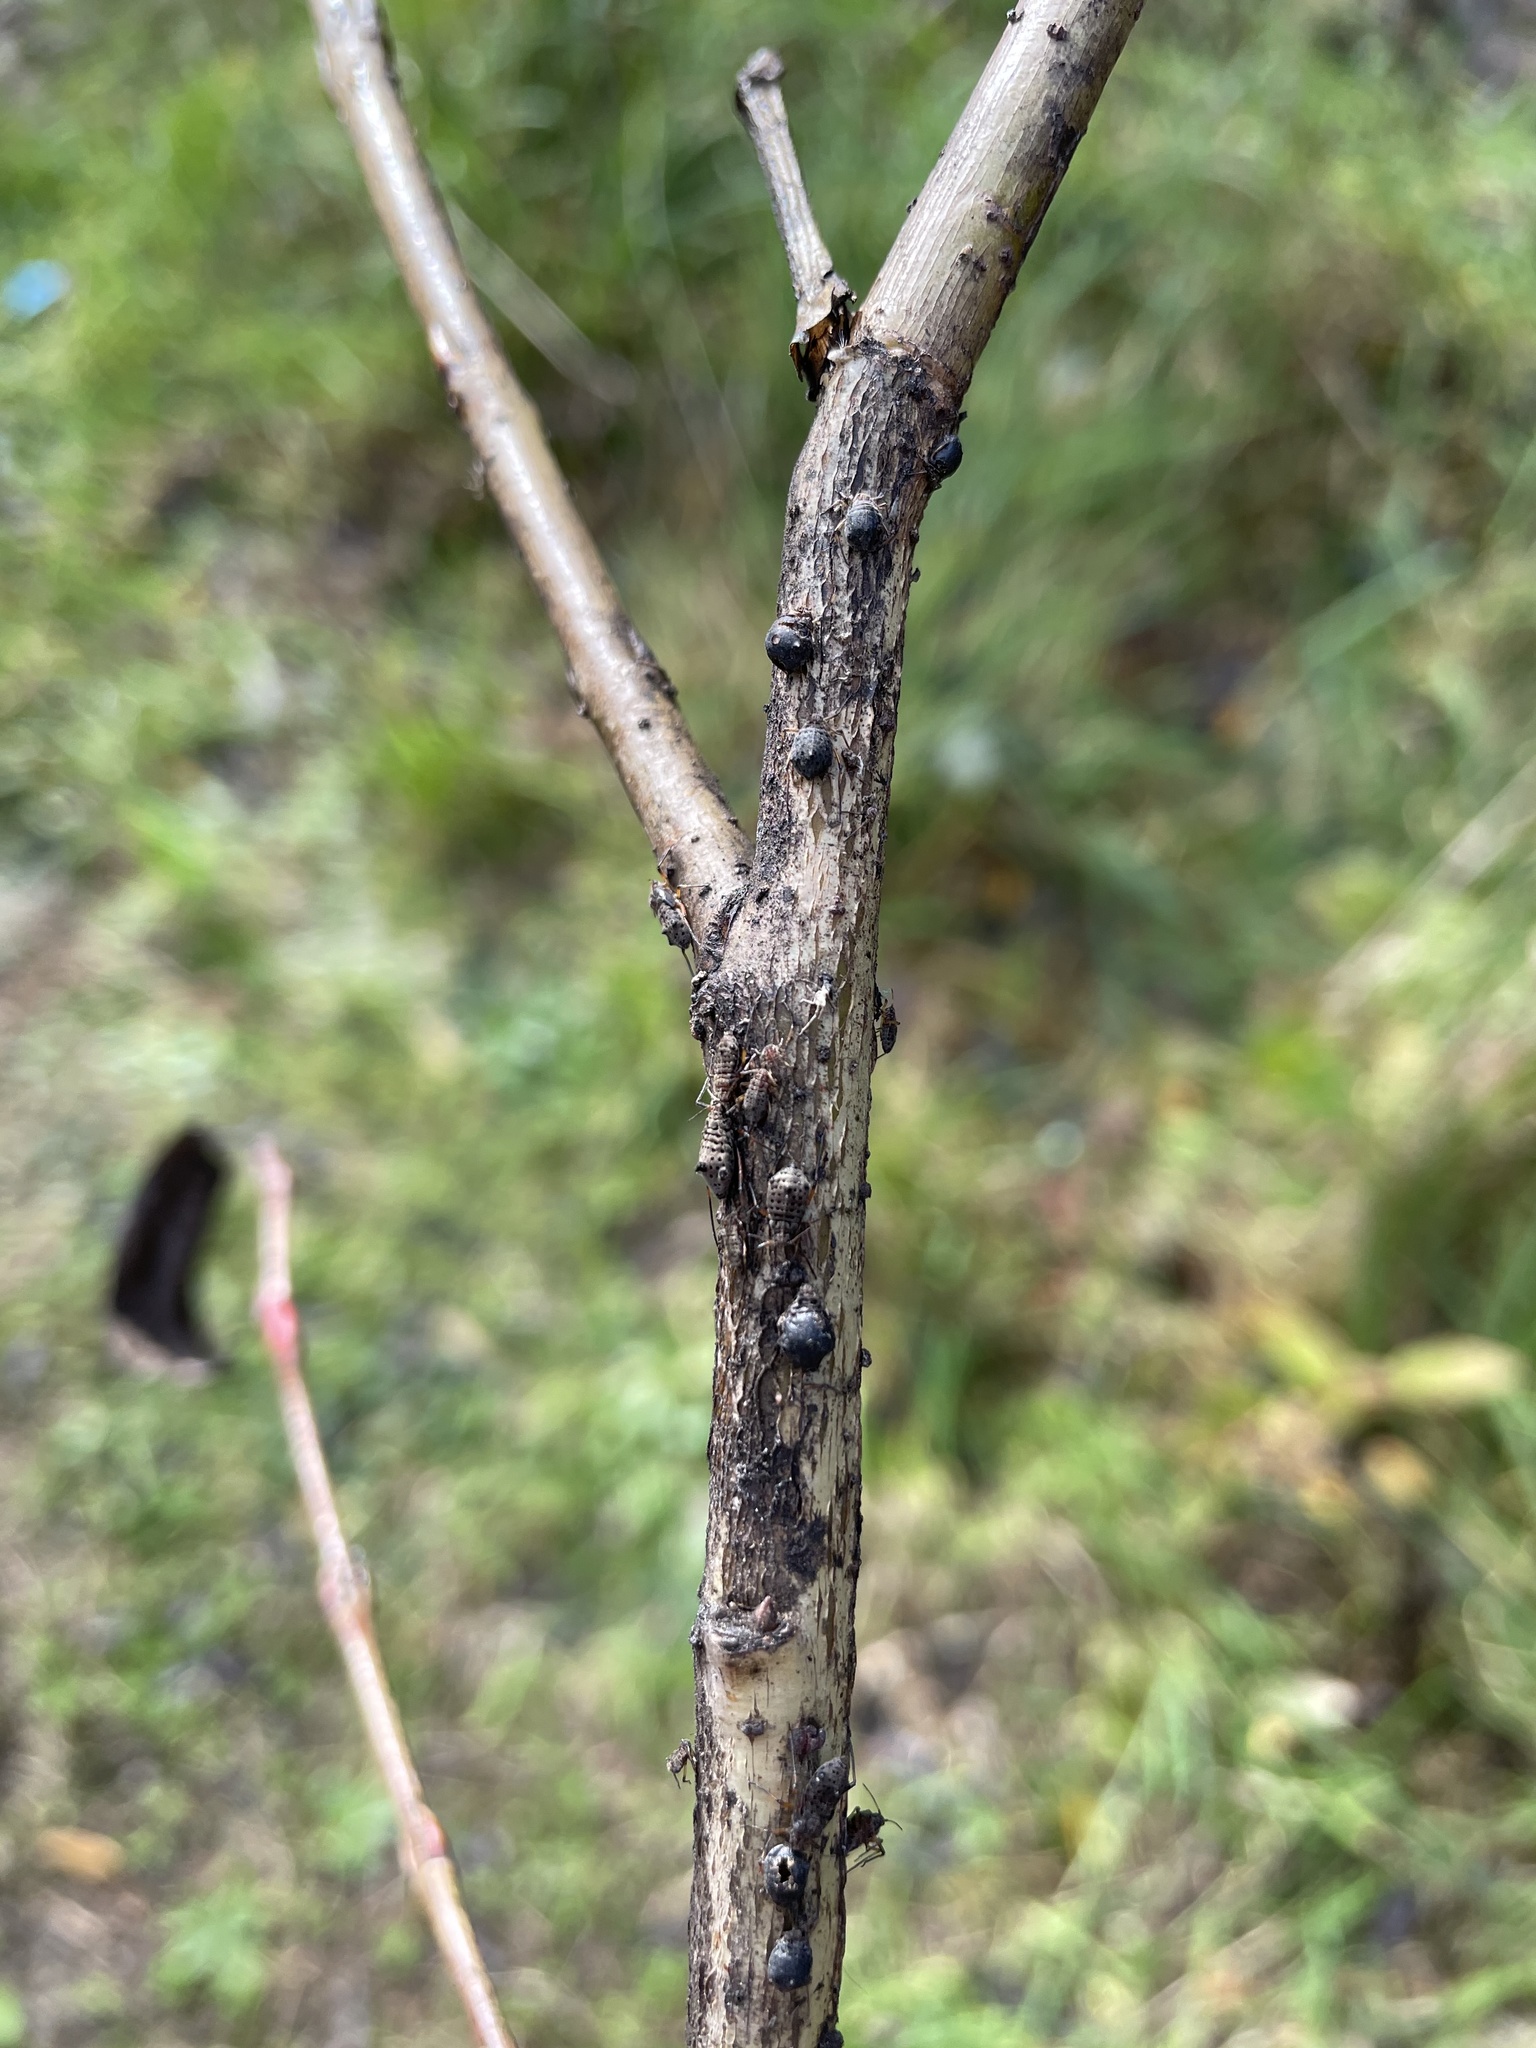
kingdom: Animalia
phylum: Arthropoda
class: Insecta
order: Hymenoptera
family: Braconidae
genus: Pauesia
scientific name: Pauesia nigrovaria
